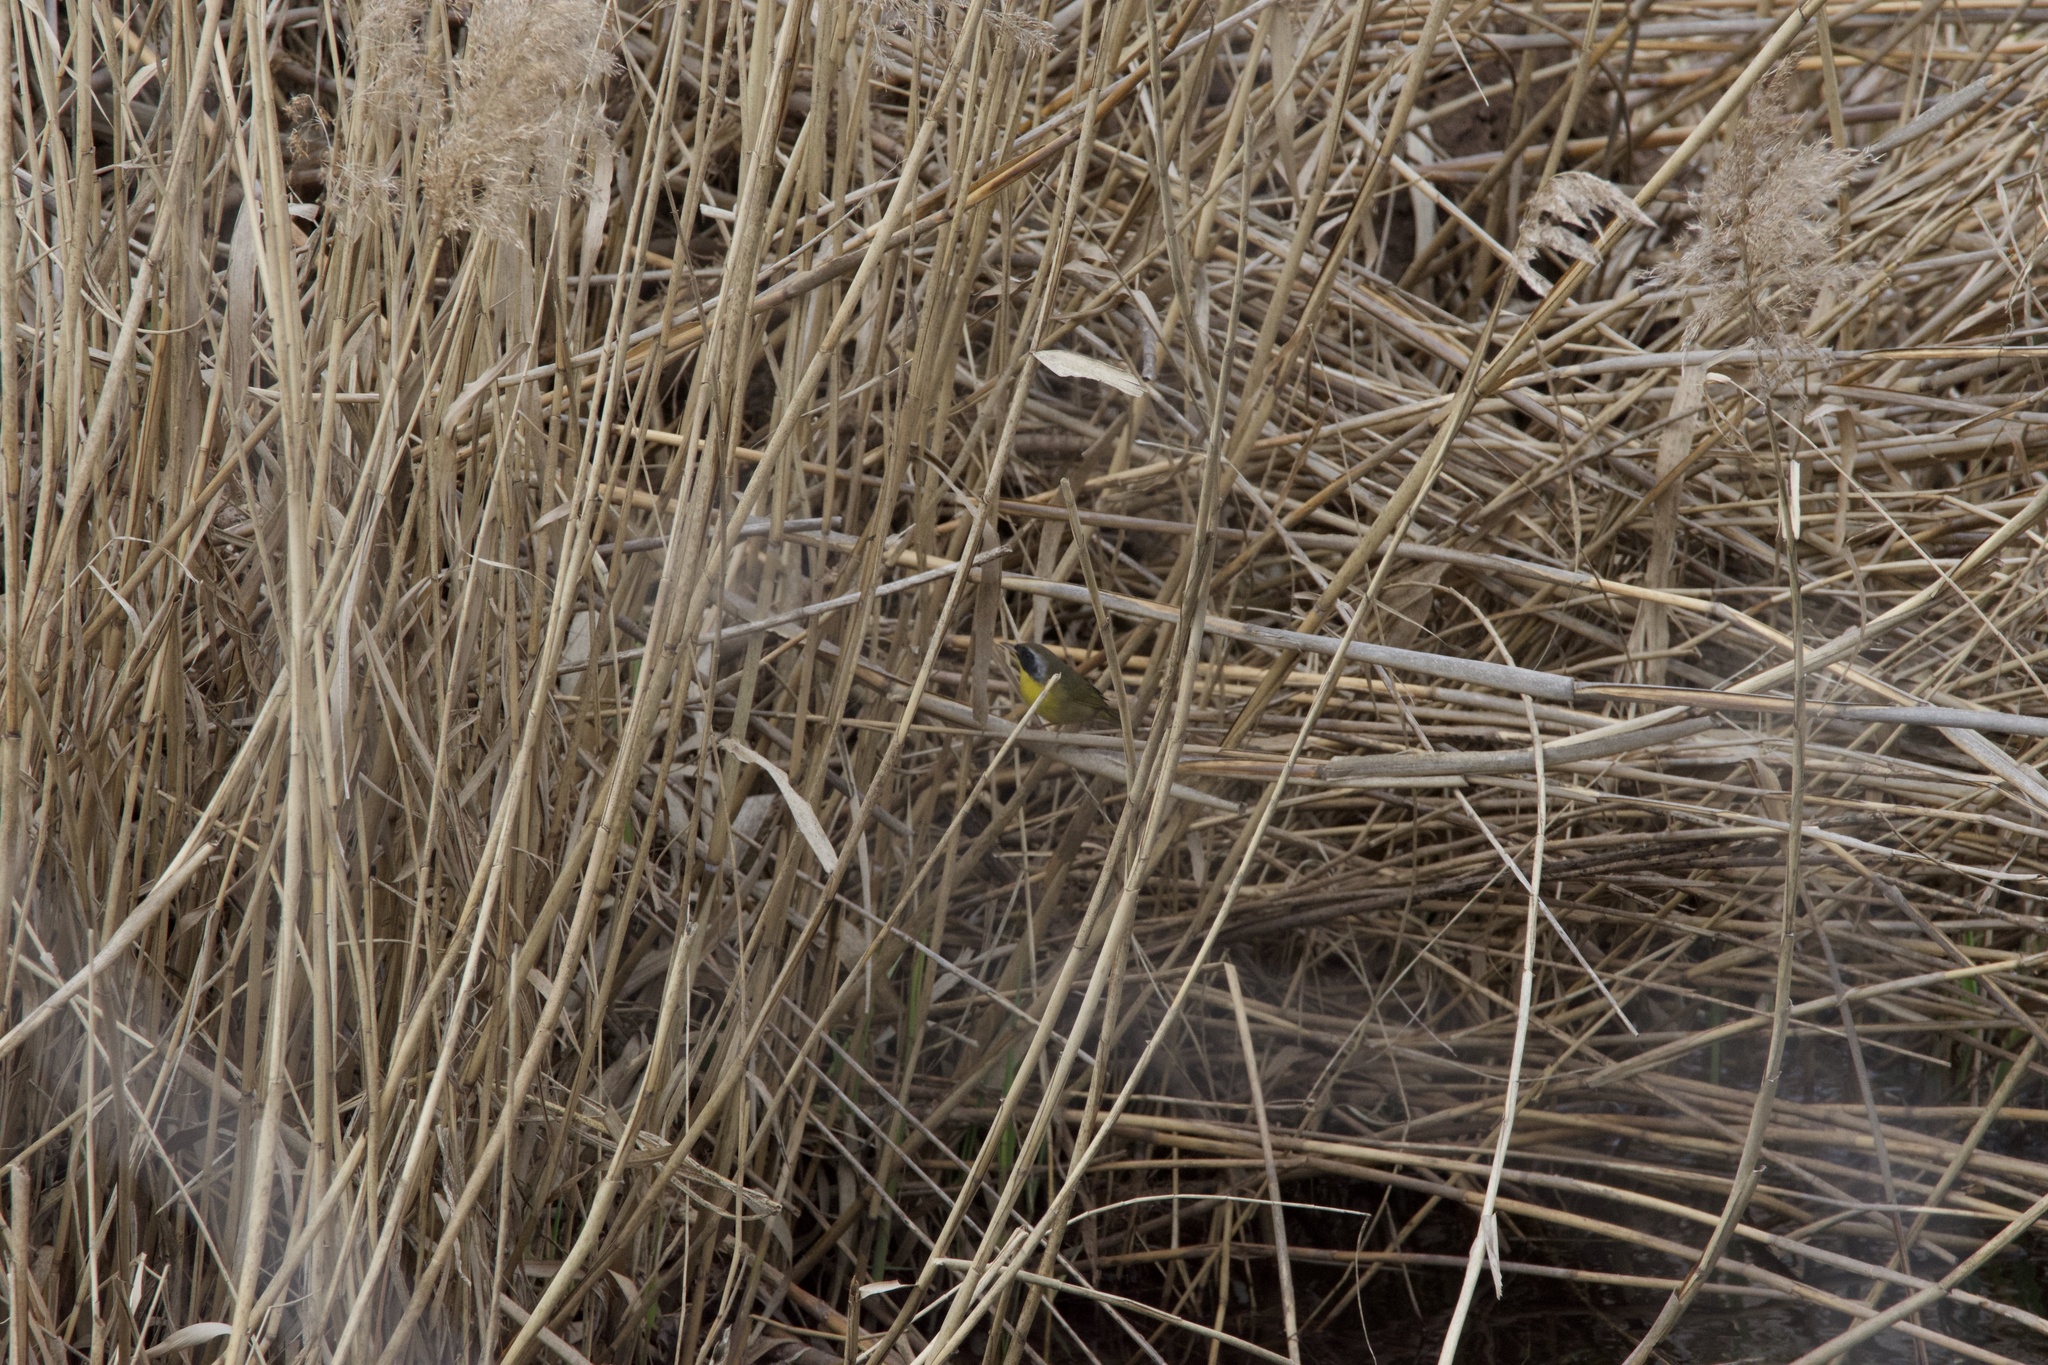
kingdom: Animalia
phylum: Chordata
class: Aves
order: Passeriformes
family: Parulidae
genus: Geothlypis
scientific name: Geothlypis trichas
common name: Common yellowthroat
